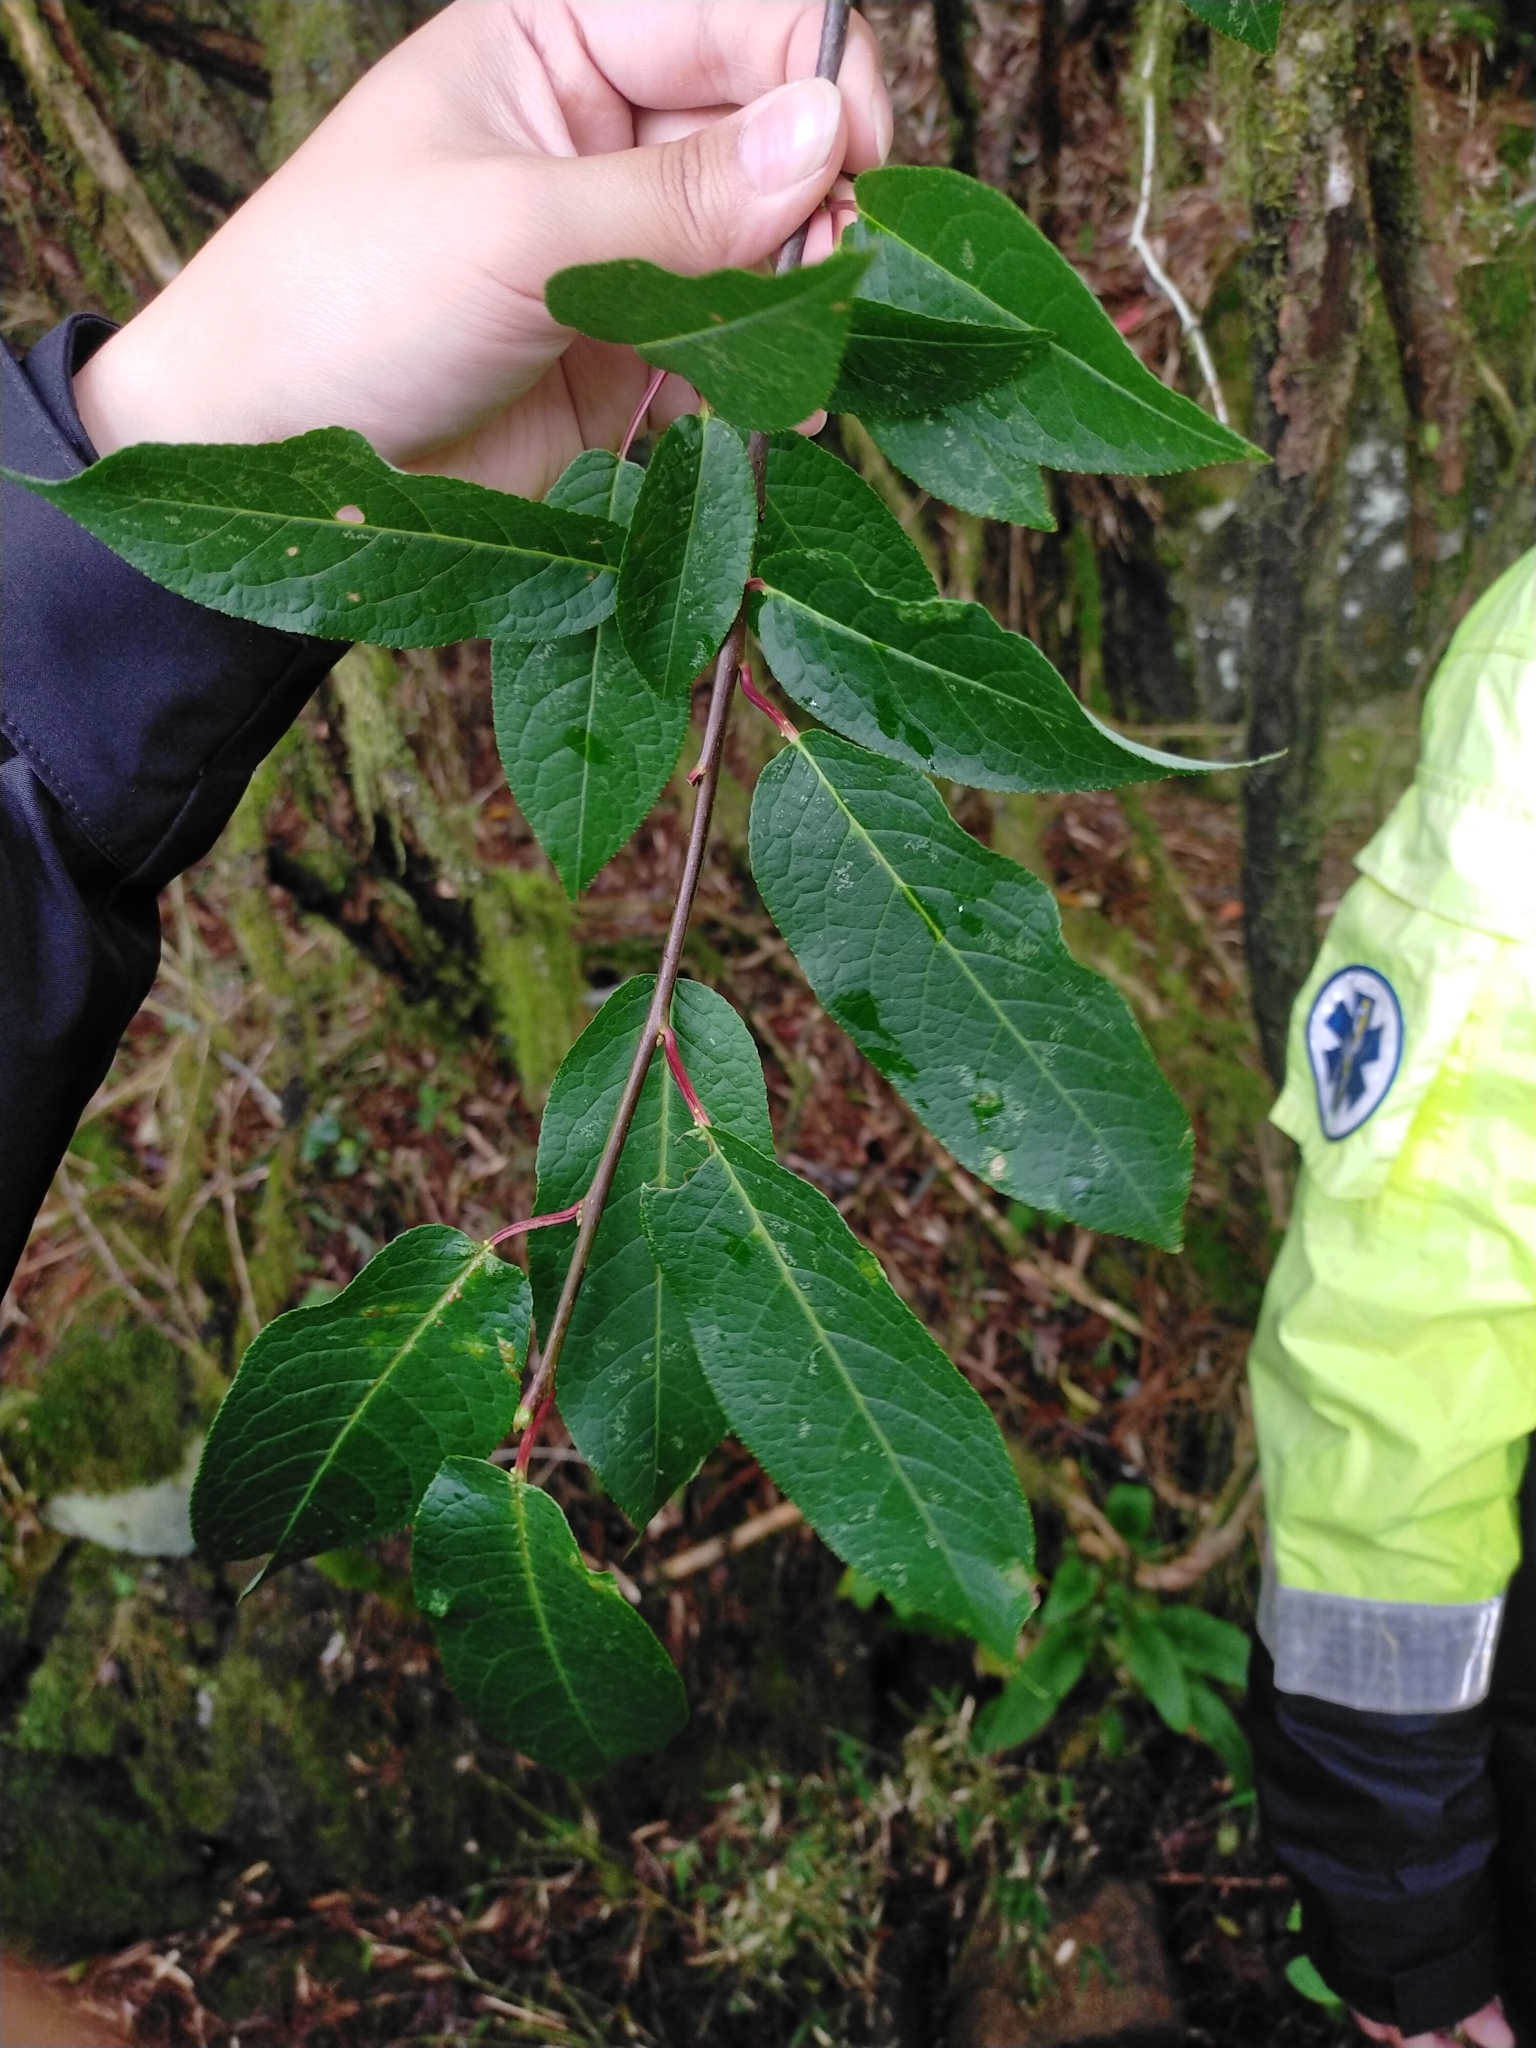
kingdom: Plantae
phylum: Tracheophyta
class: Magnoliopsida
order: Rosales
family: Rosaceae
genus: Prunus
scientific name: Prunus obtusata
